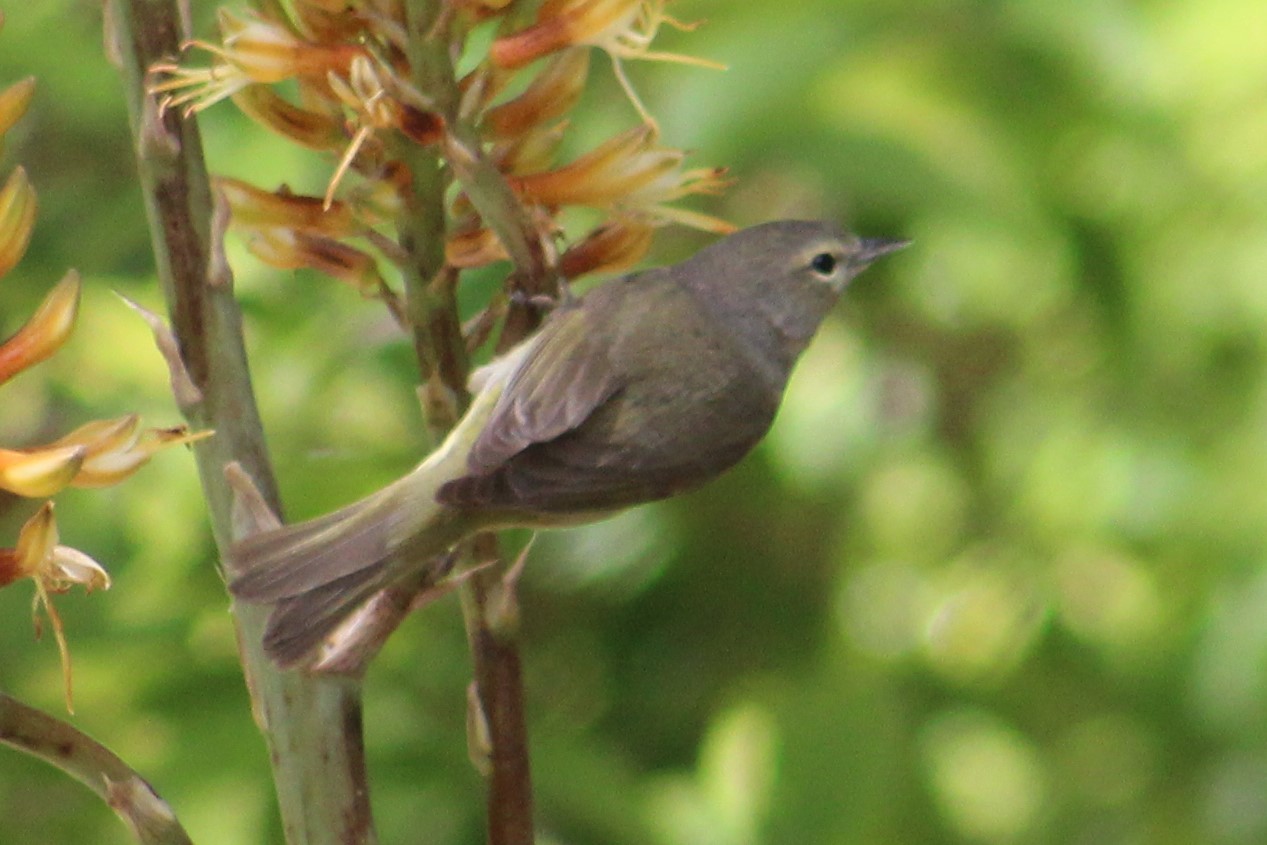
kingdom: Animalia
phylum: Chordata
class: Aves
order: Passeriformes
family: Parulidae
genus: Leiothlypis
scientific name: Leiothlypis celata
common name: Orange-crowned warbler
